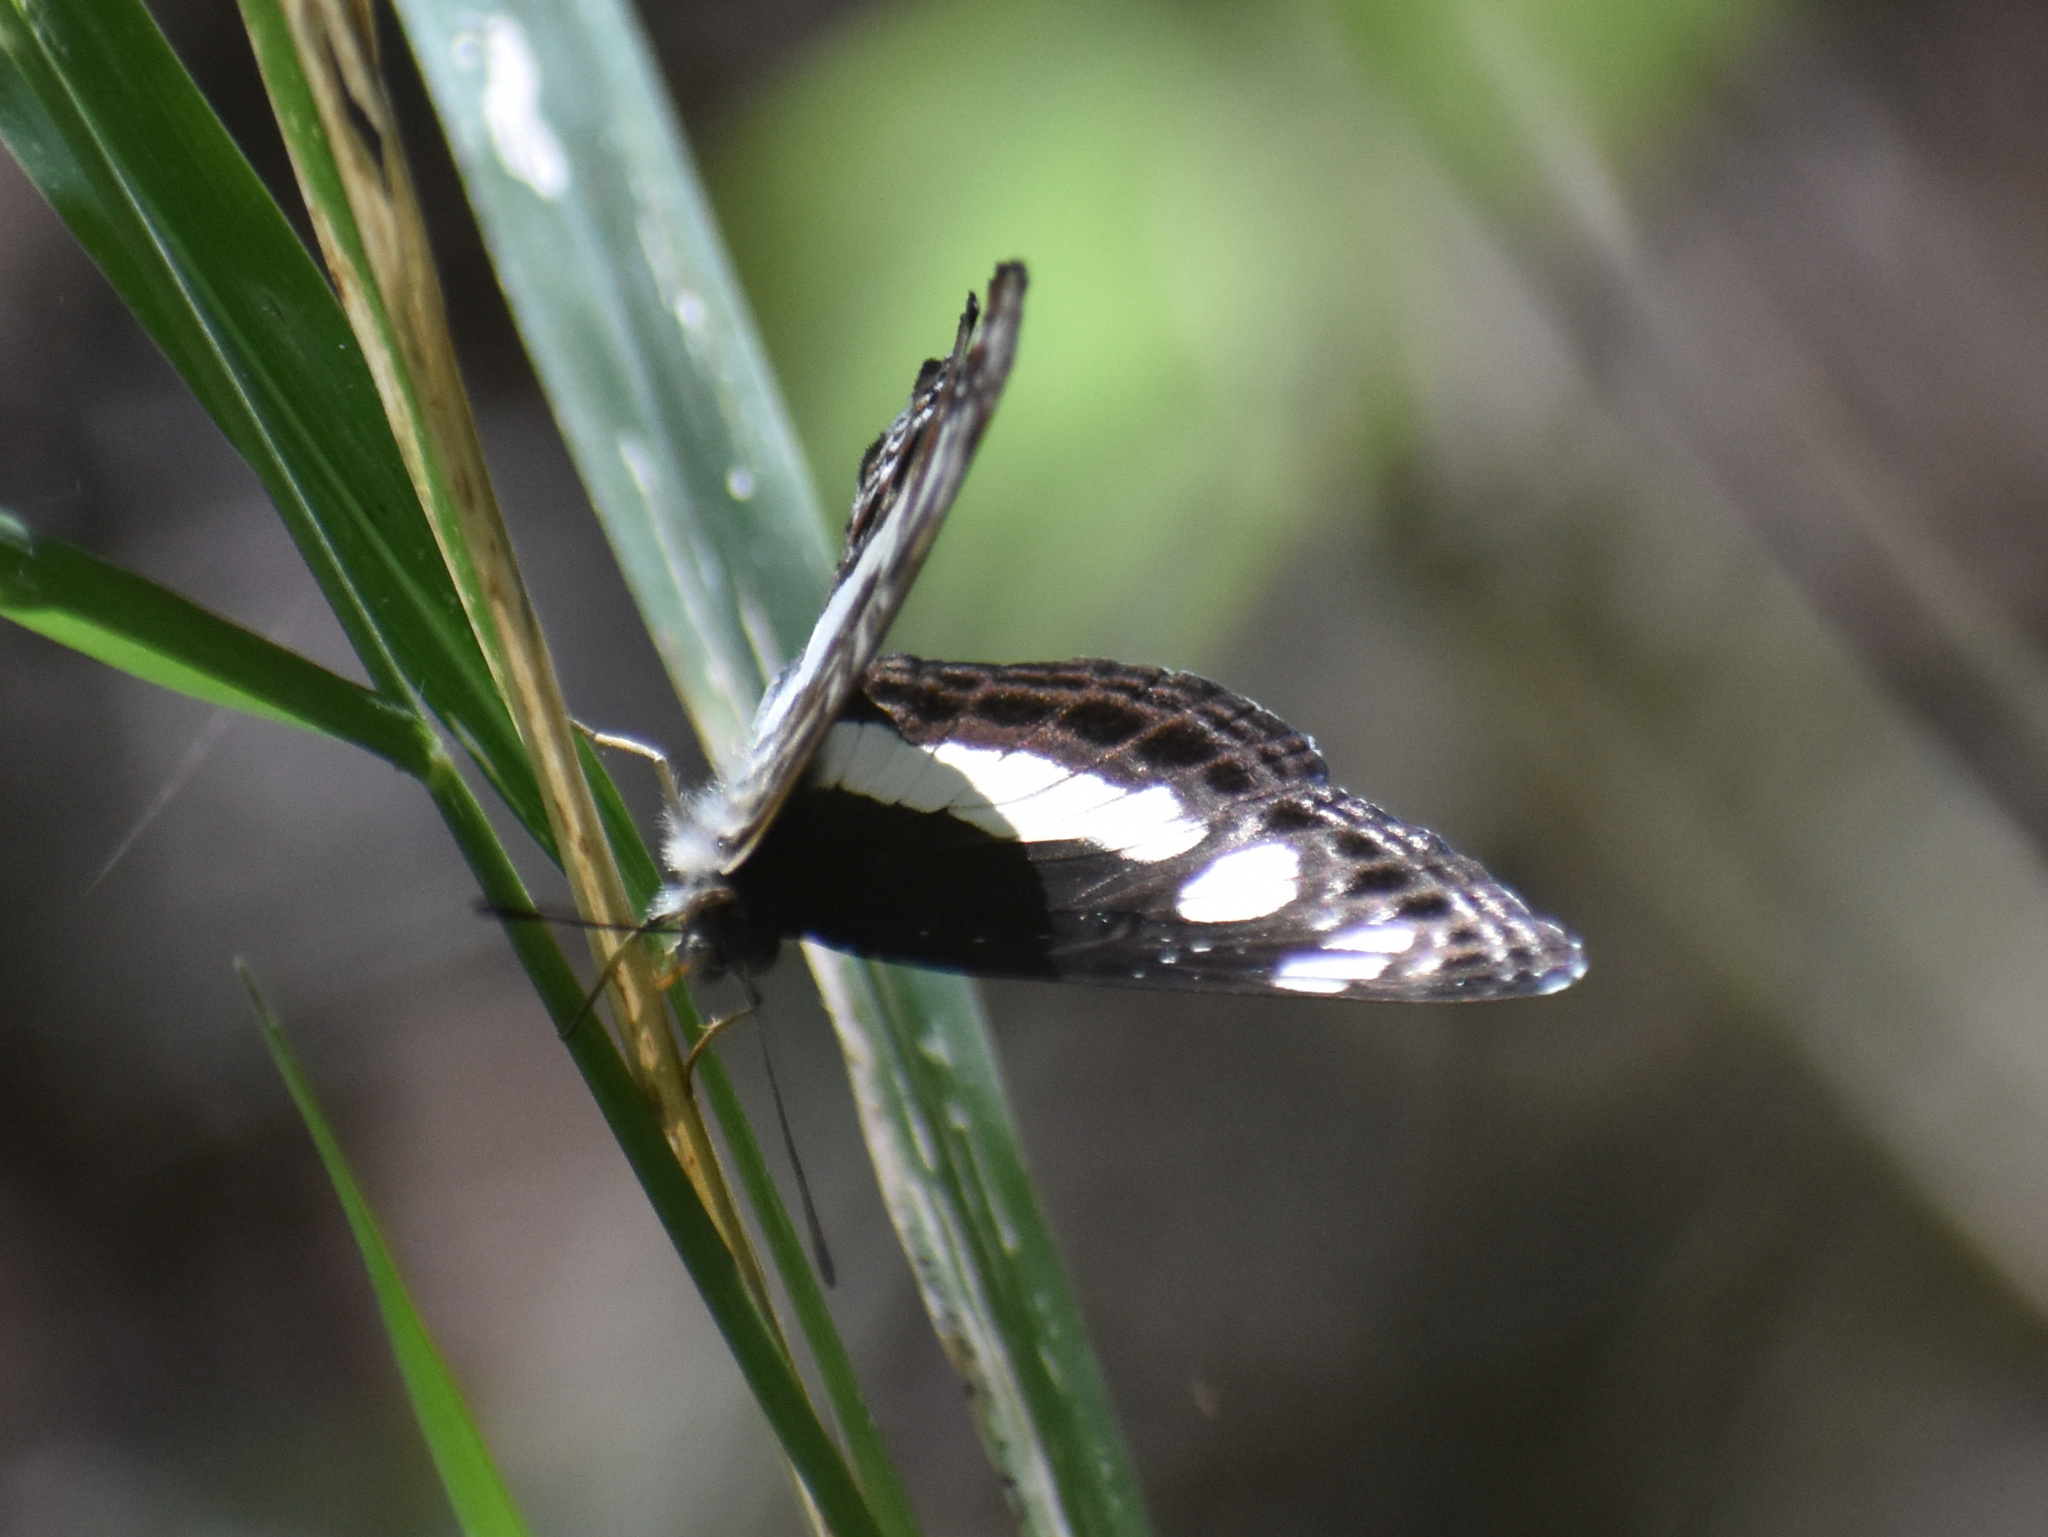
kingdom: Animalia
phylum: Arthropoda
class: Insecta
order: Lepidoptera
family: Nymphalidae
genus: Neptis
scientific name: Neptis saclava
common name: Small spotted sailor
